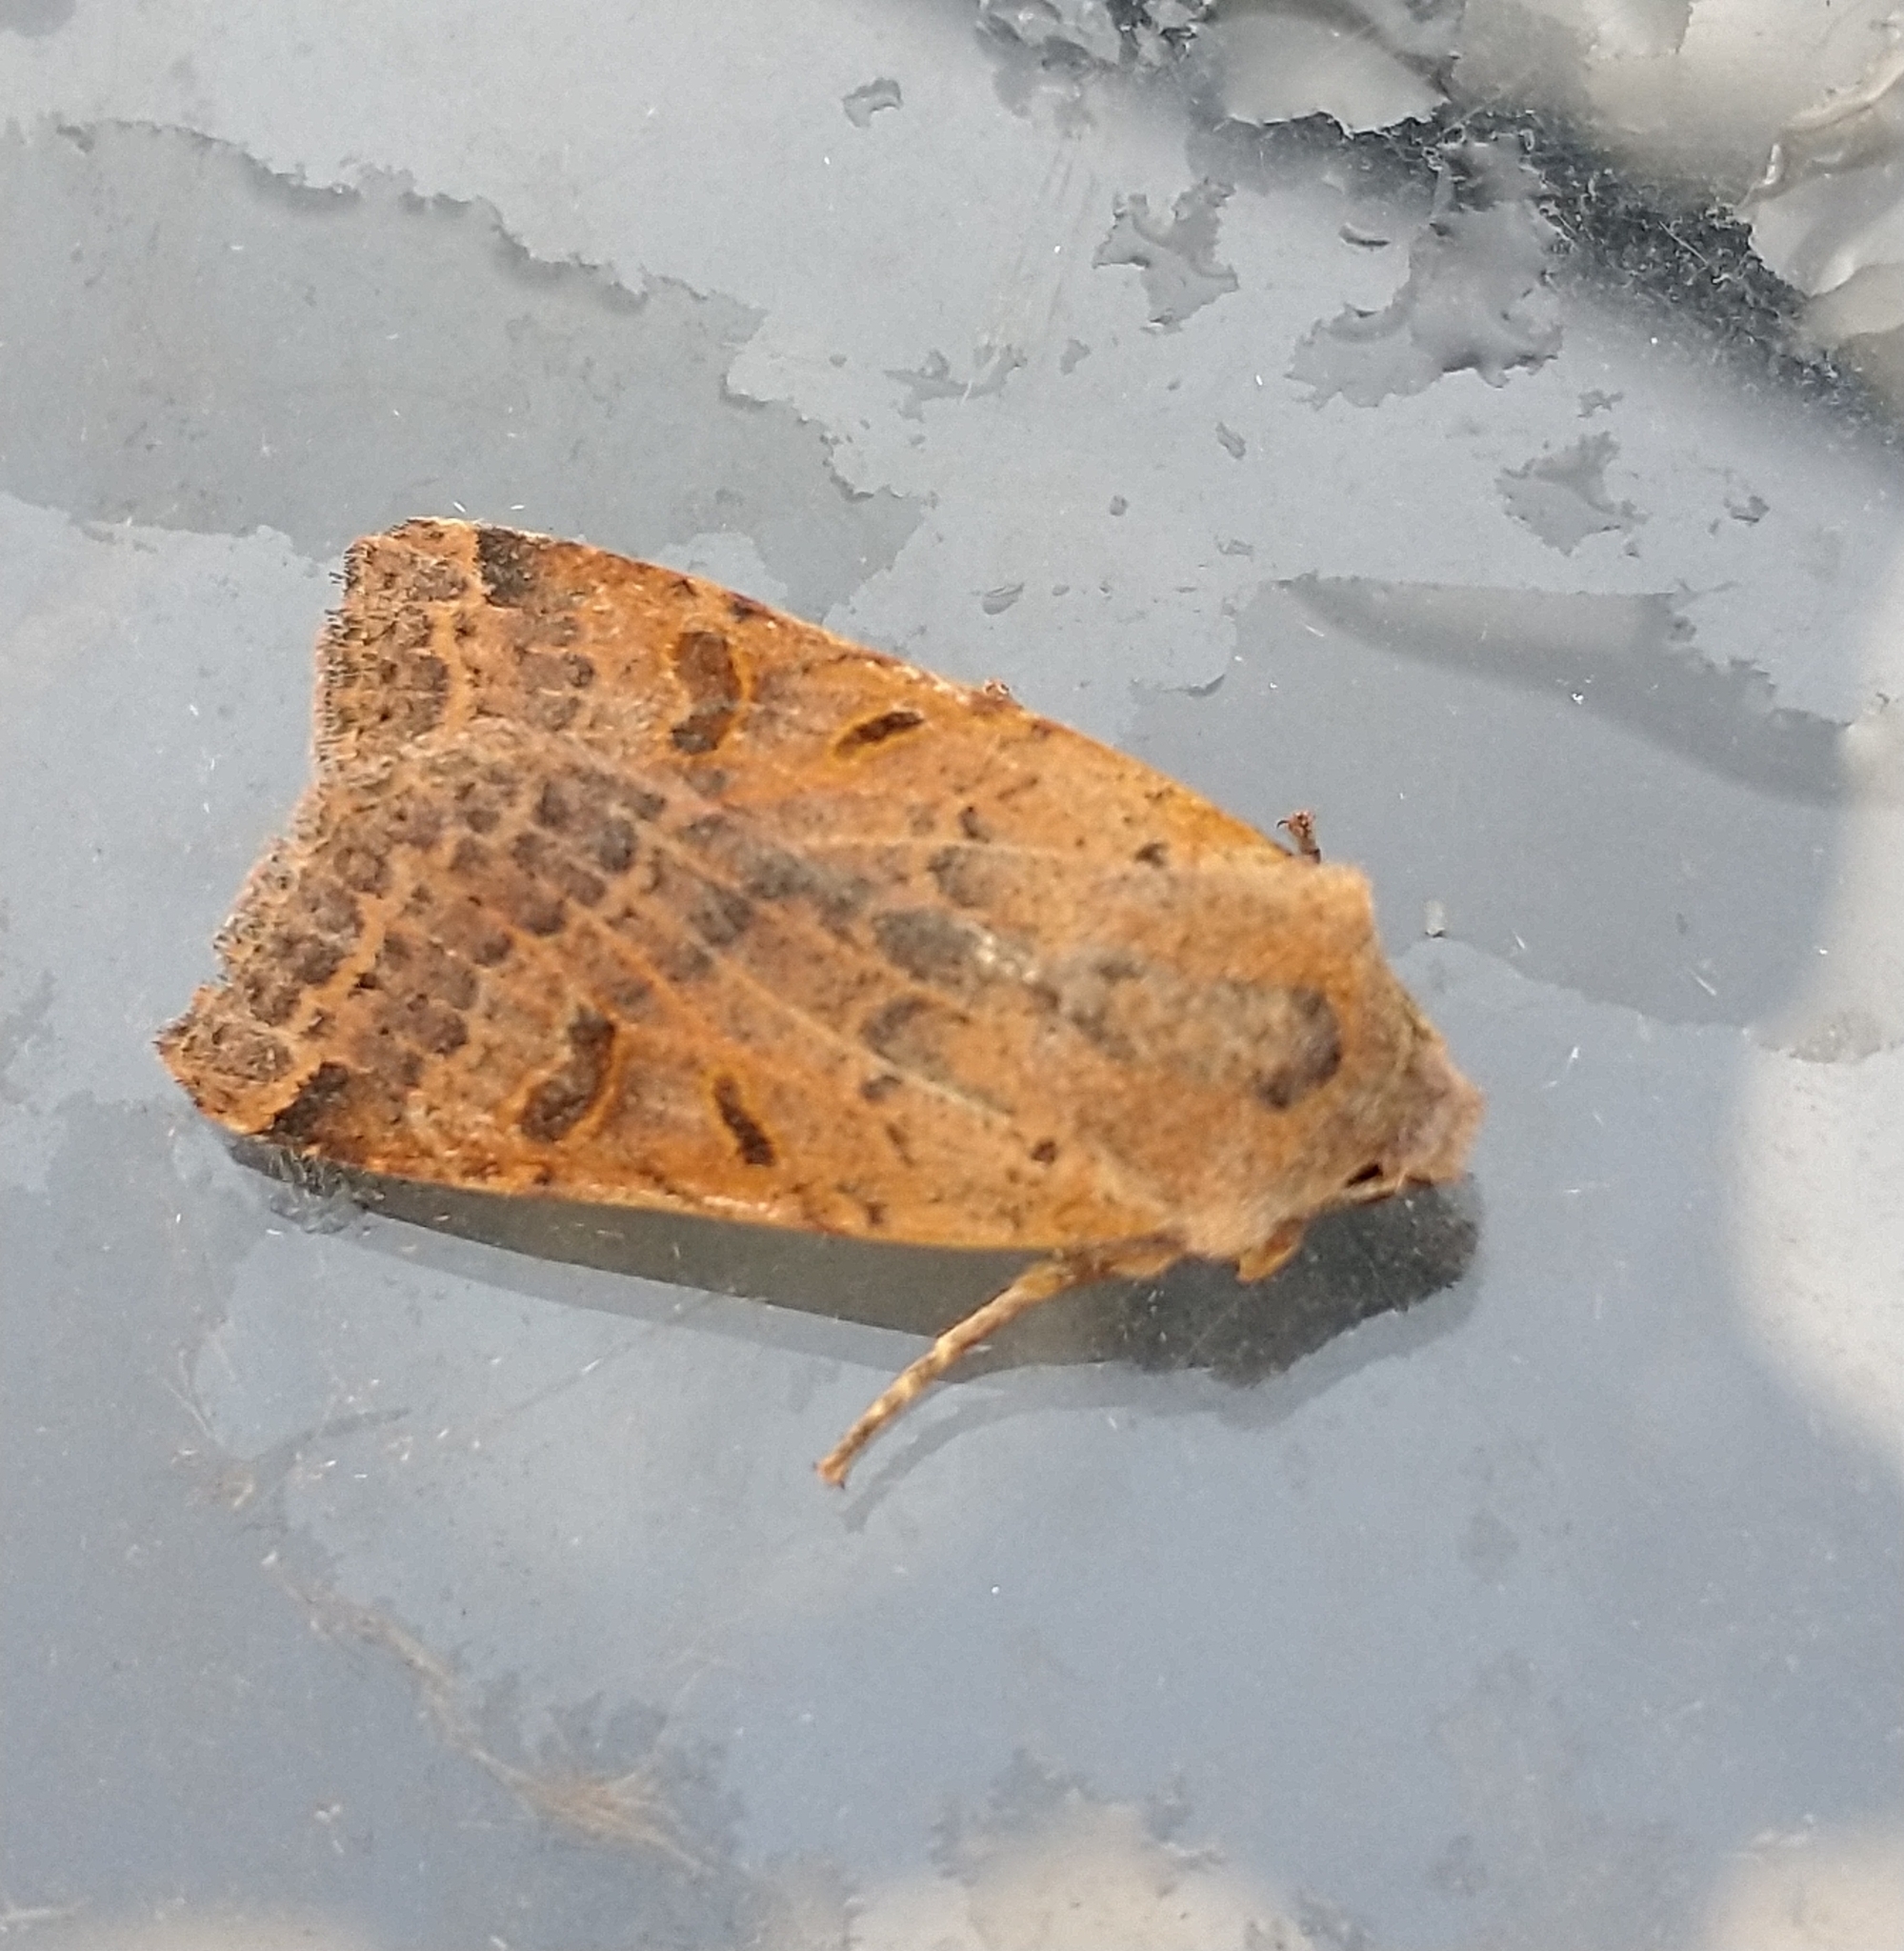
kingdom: Animalia
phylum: Arthropoda
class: Insecta
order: Lepidoptera
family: Noctuidae
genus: Agrochola
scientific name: Agrochola lychnidis
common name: Beaded chestnut
